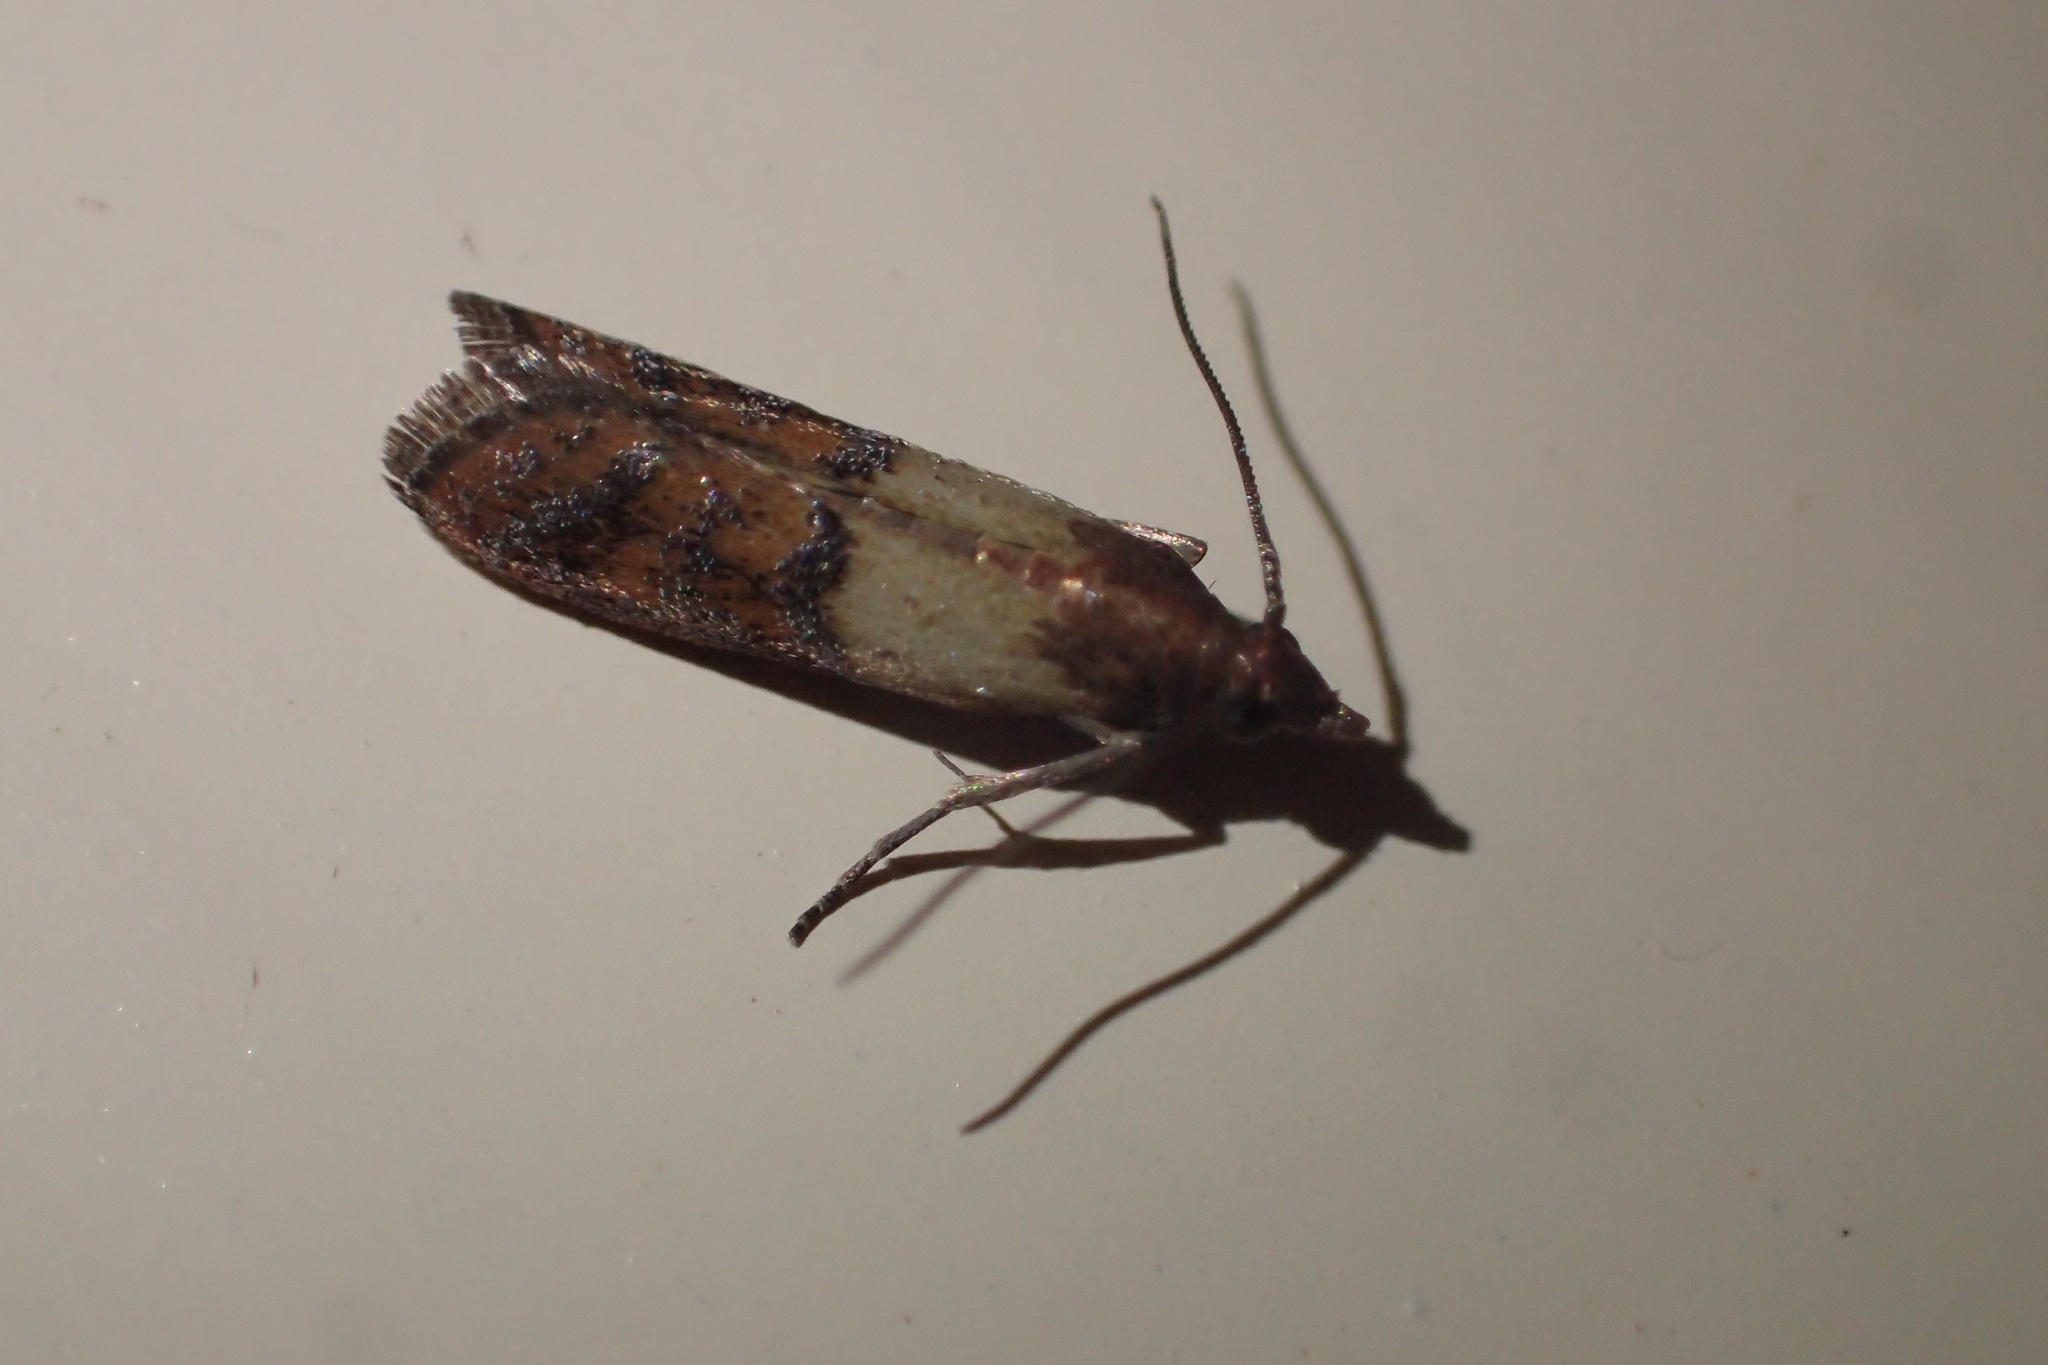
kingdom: Animalia
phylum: Arthropoda
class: Insecta
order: Lepidoptera
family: Pyralidae
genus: Plodia
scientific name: Plodia interpunctella
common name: Indian meal moth
